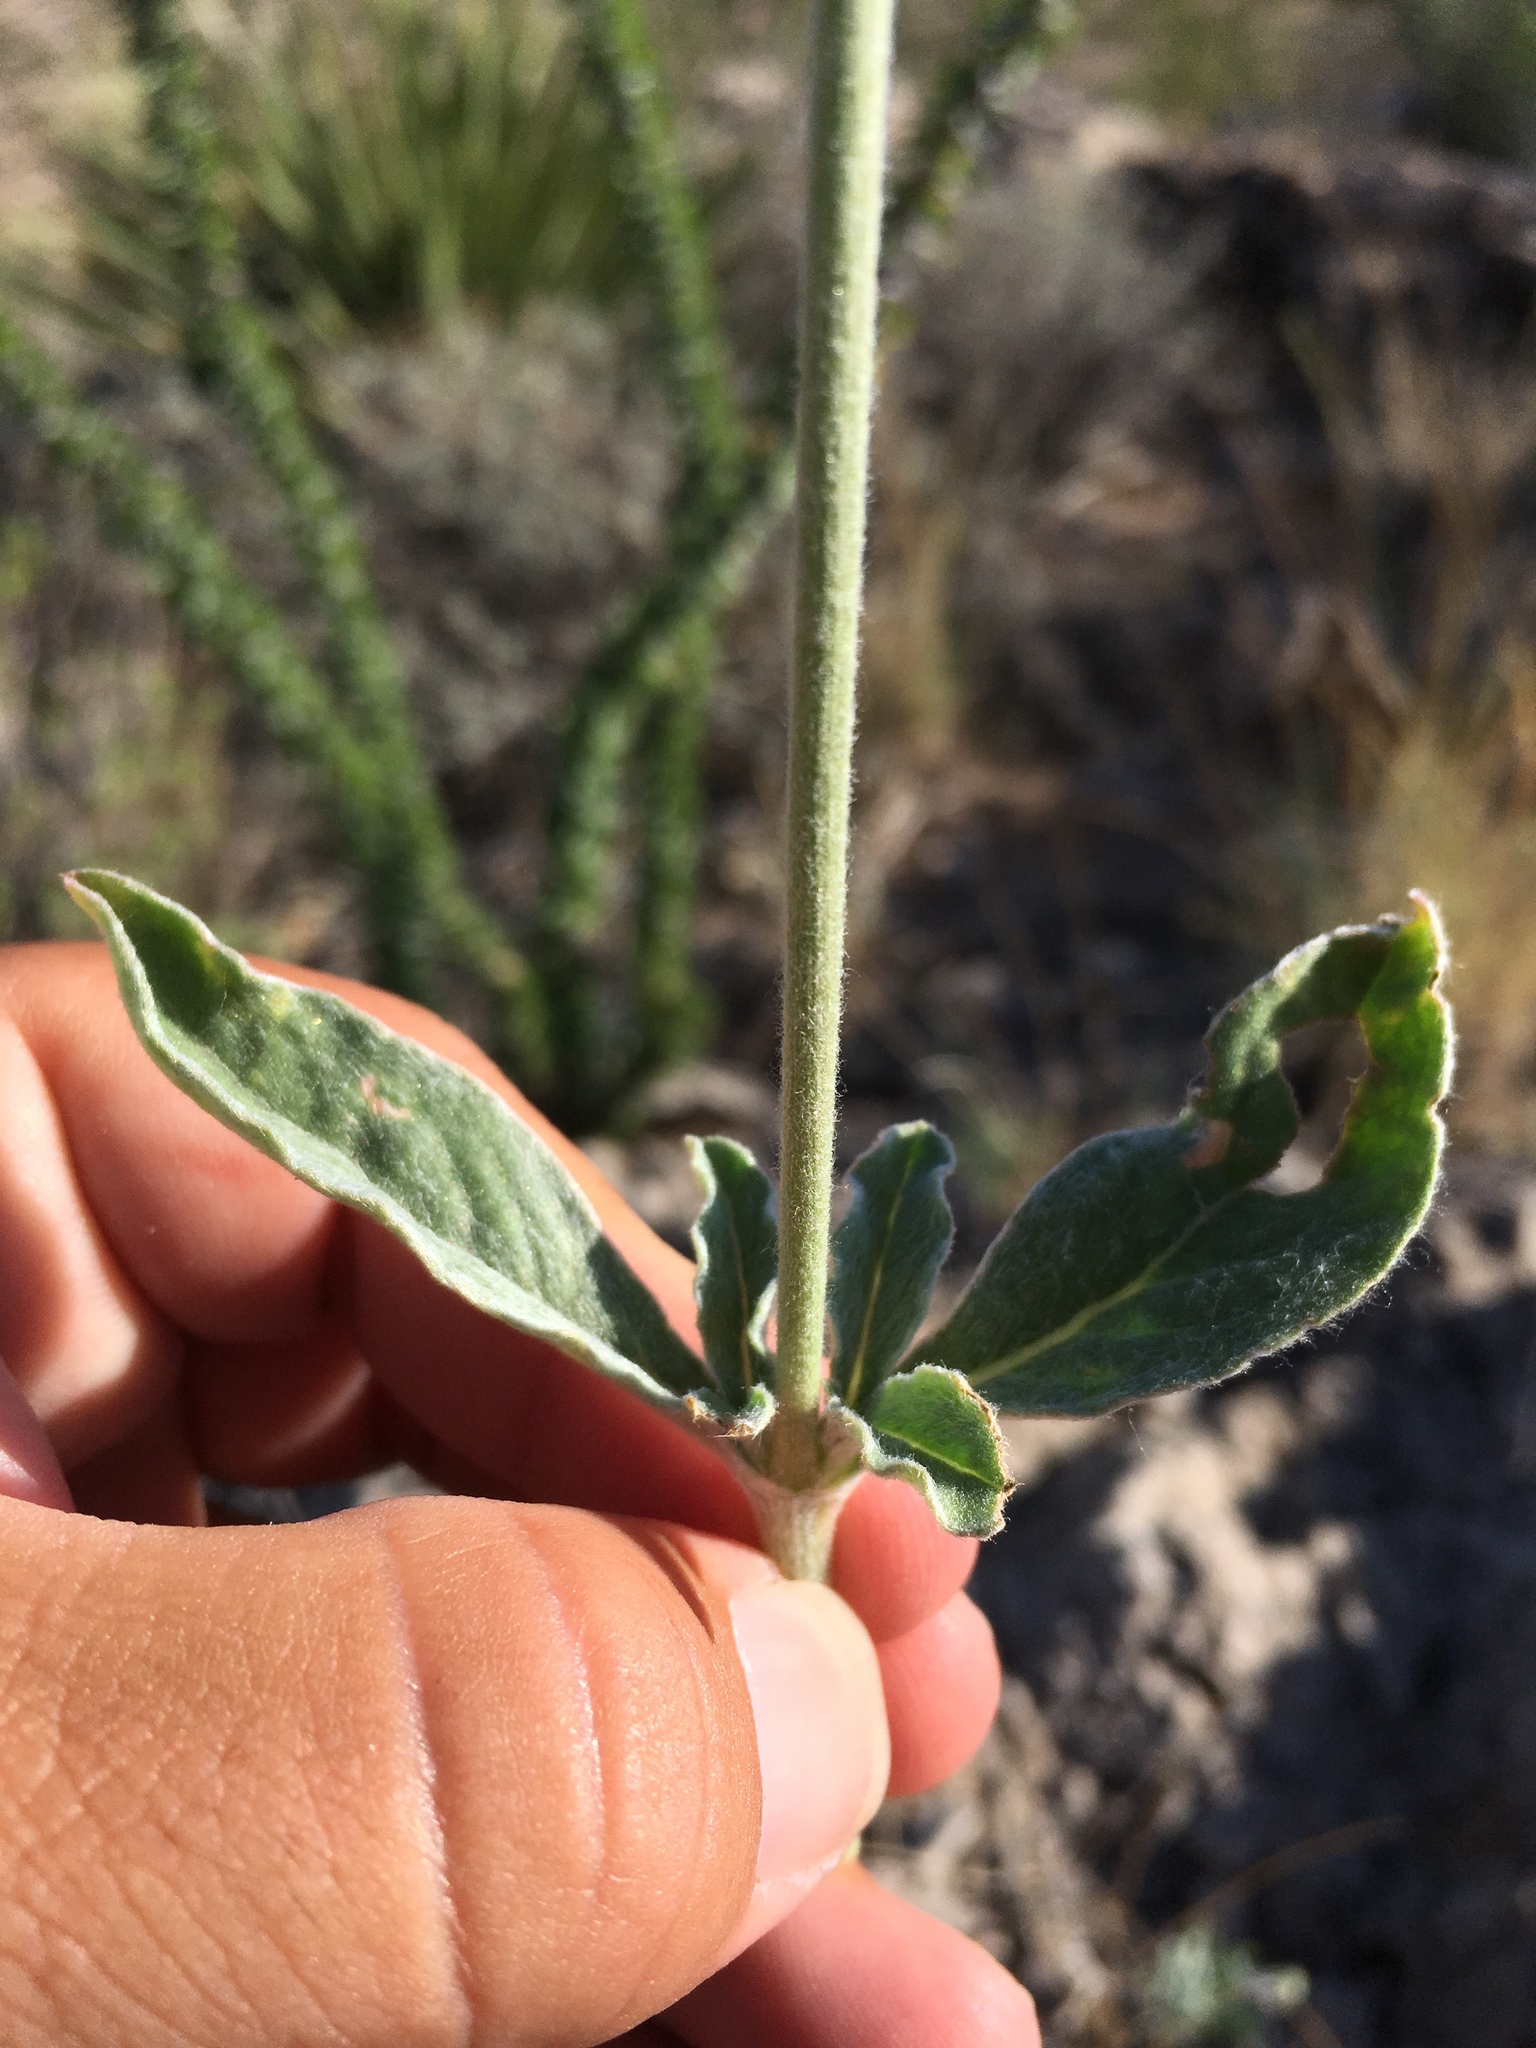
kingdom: Plantae
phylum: Tracheophyta
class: Magnoliopsida
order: Caryophyllales
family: Amaranthaceae
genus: Froelichia
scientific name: Froelichia arizonica
